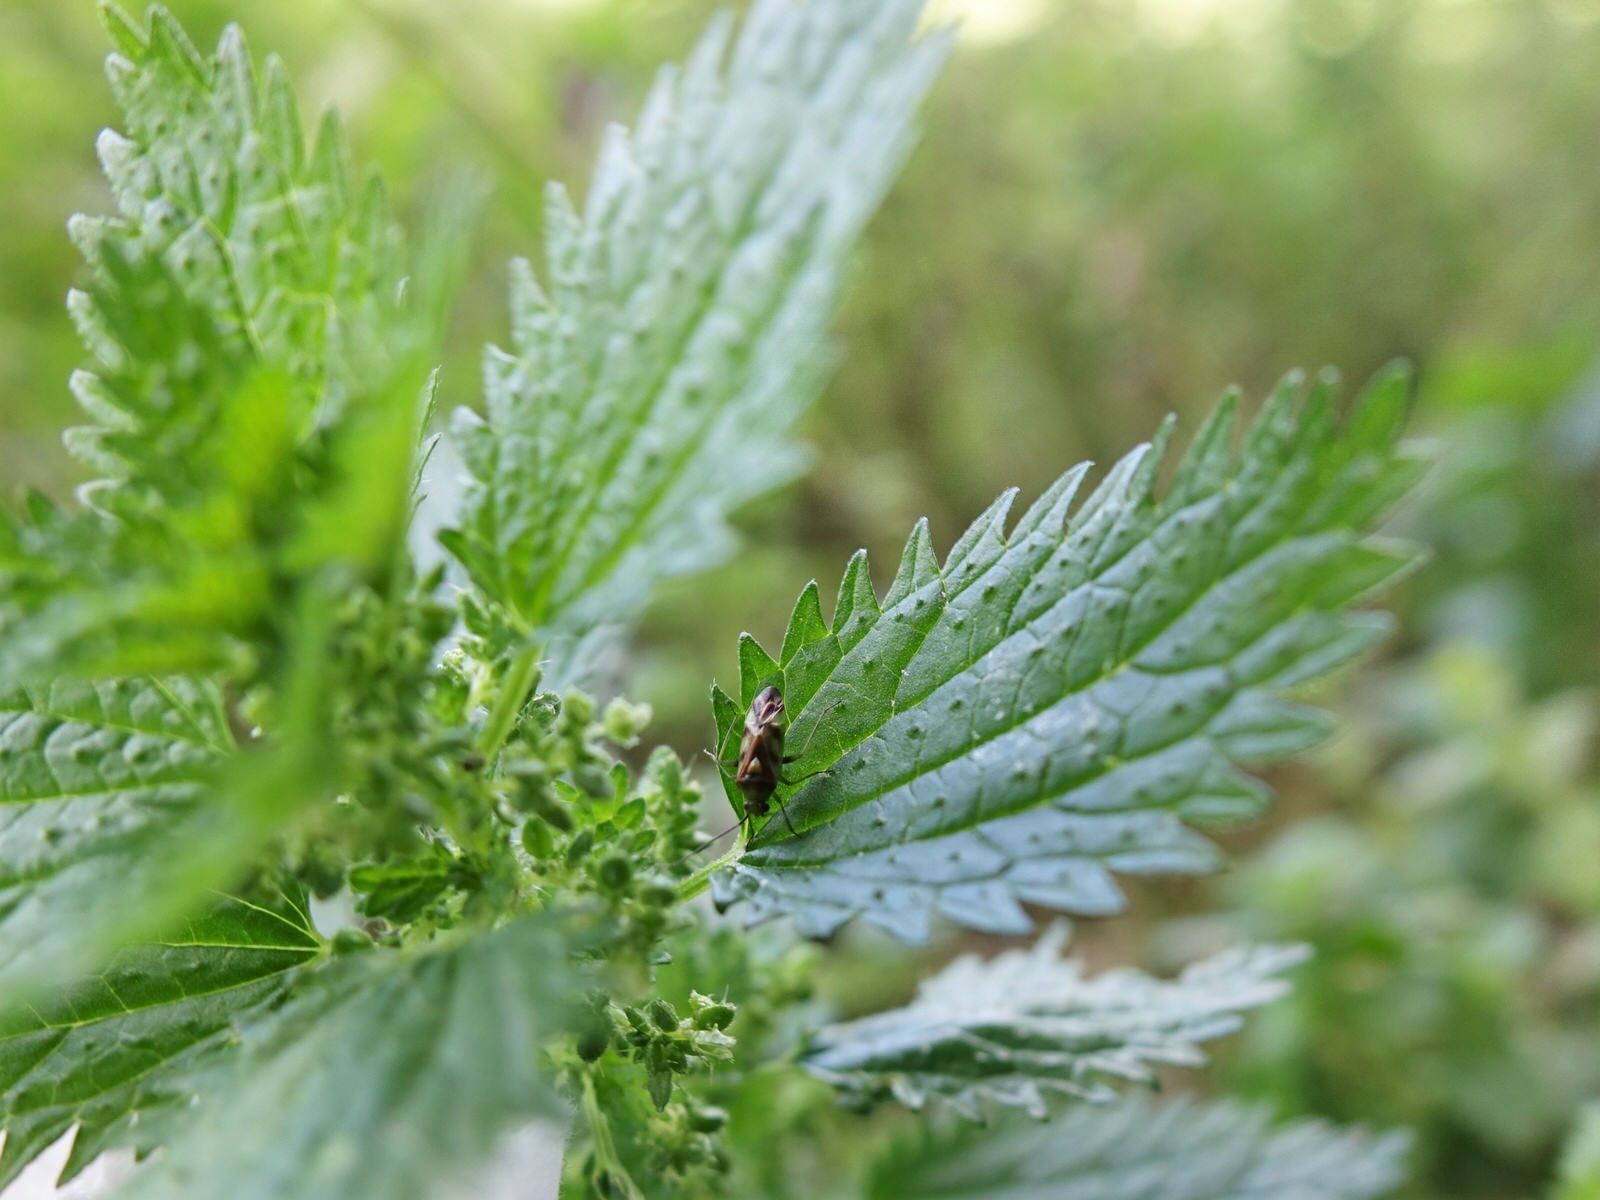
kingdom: Animalia
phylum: Arthropoda
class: Insecta
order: Hemiptera
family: Miridae
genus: Tuicoris
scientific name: Tuicoris excelsus
